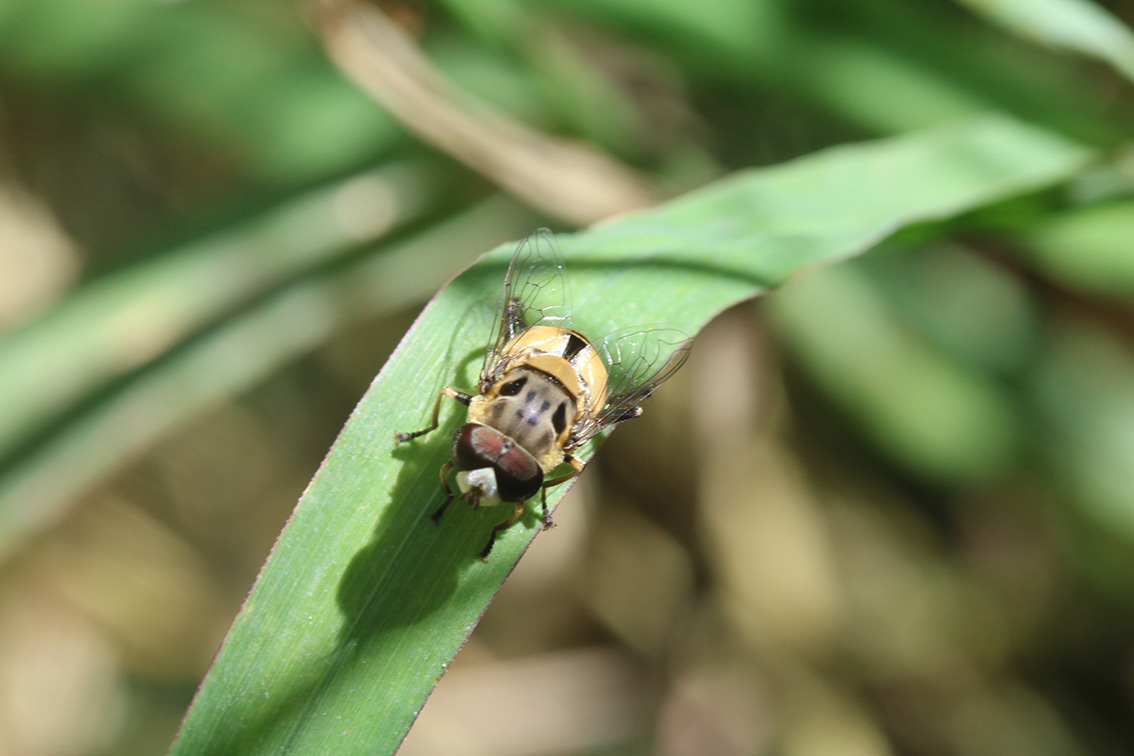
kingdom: Animalia
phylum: Arthropoda
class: Insecta
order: Diptera
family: Syrphidae
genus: Palpada
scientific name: Palpada
